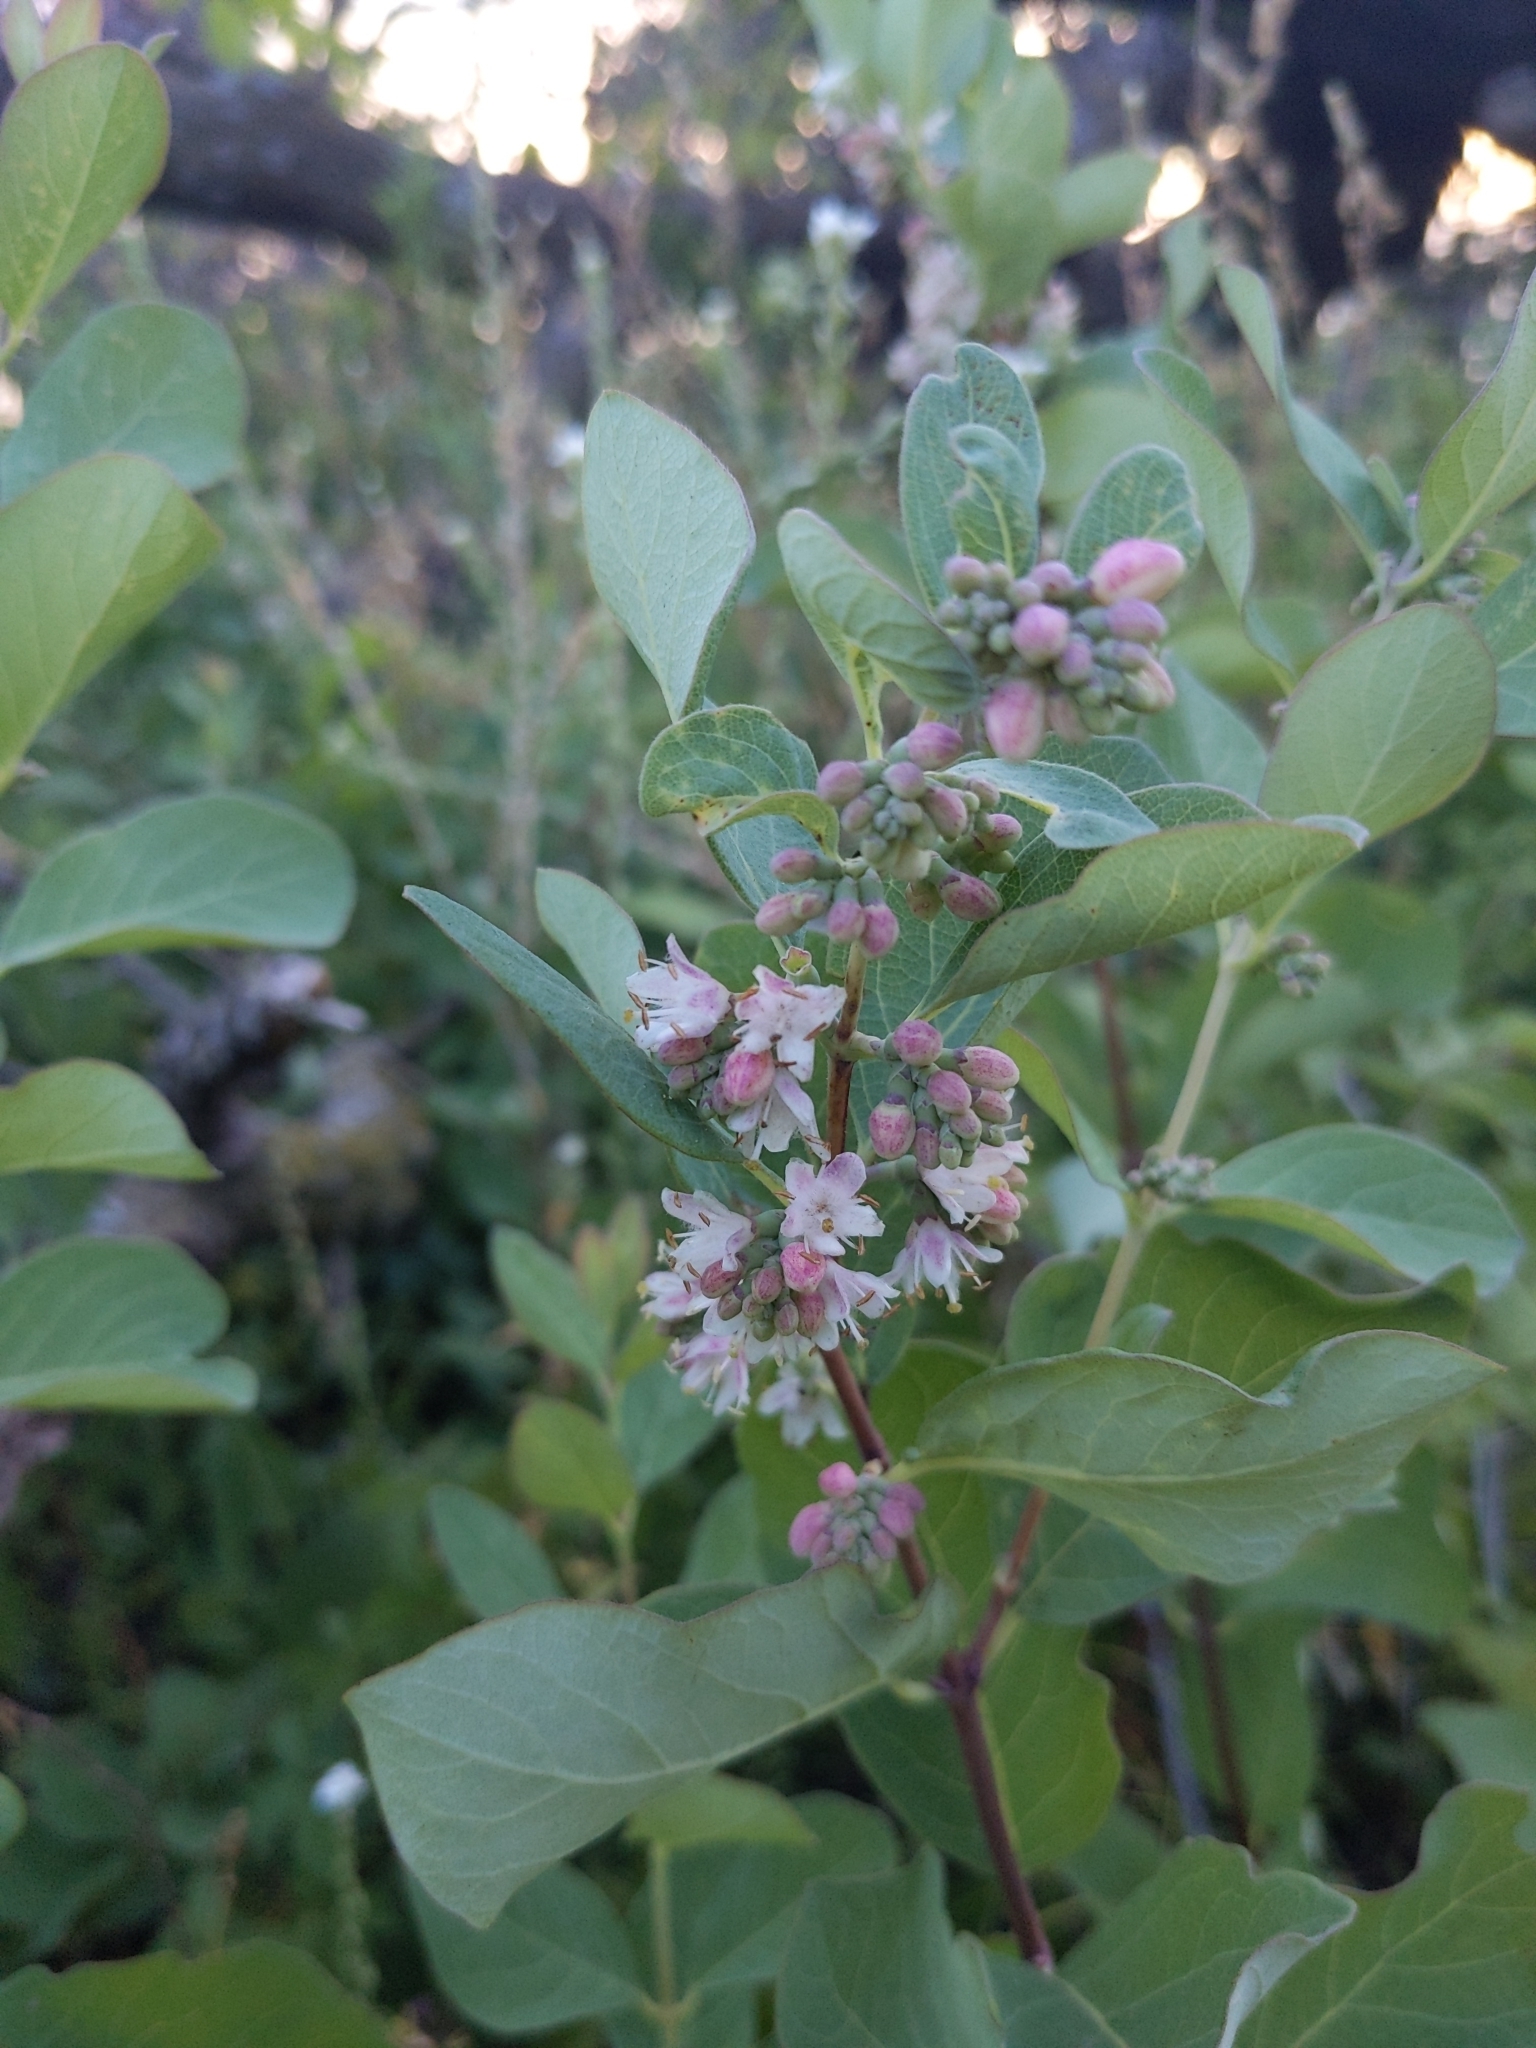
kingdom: Plantae
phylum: Tracheophyta
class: Magnoliopsida
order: Dipsacales
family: Caprifoliaceae
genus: Symphoricarpos
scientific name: Symphoricarpos occidentalis
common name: Wolfberry
